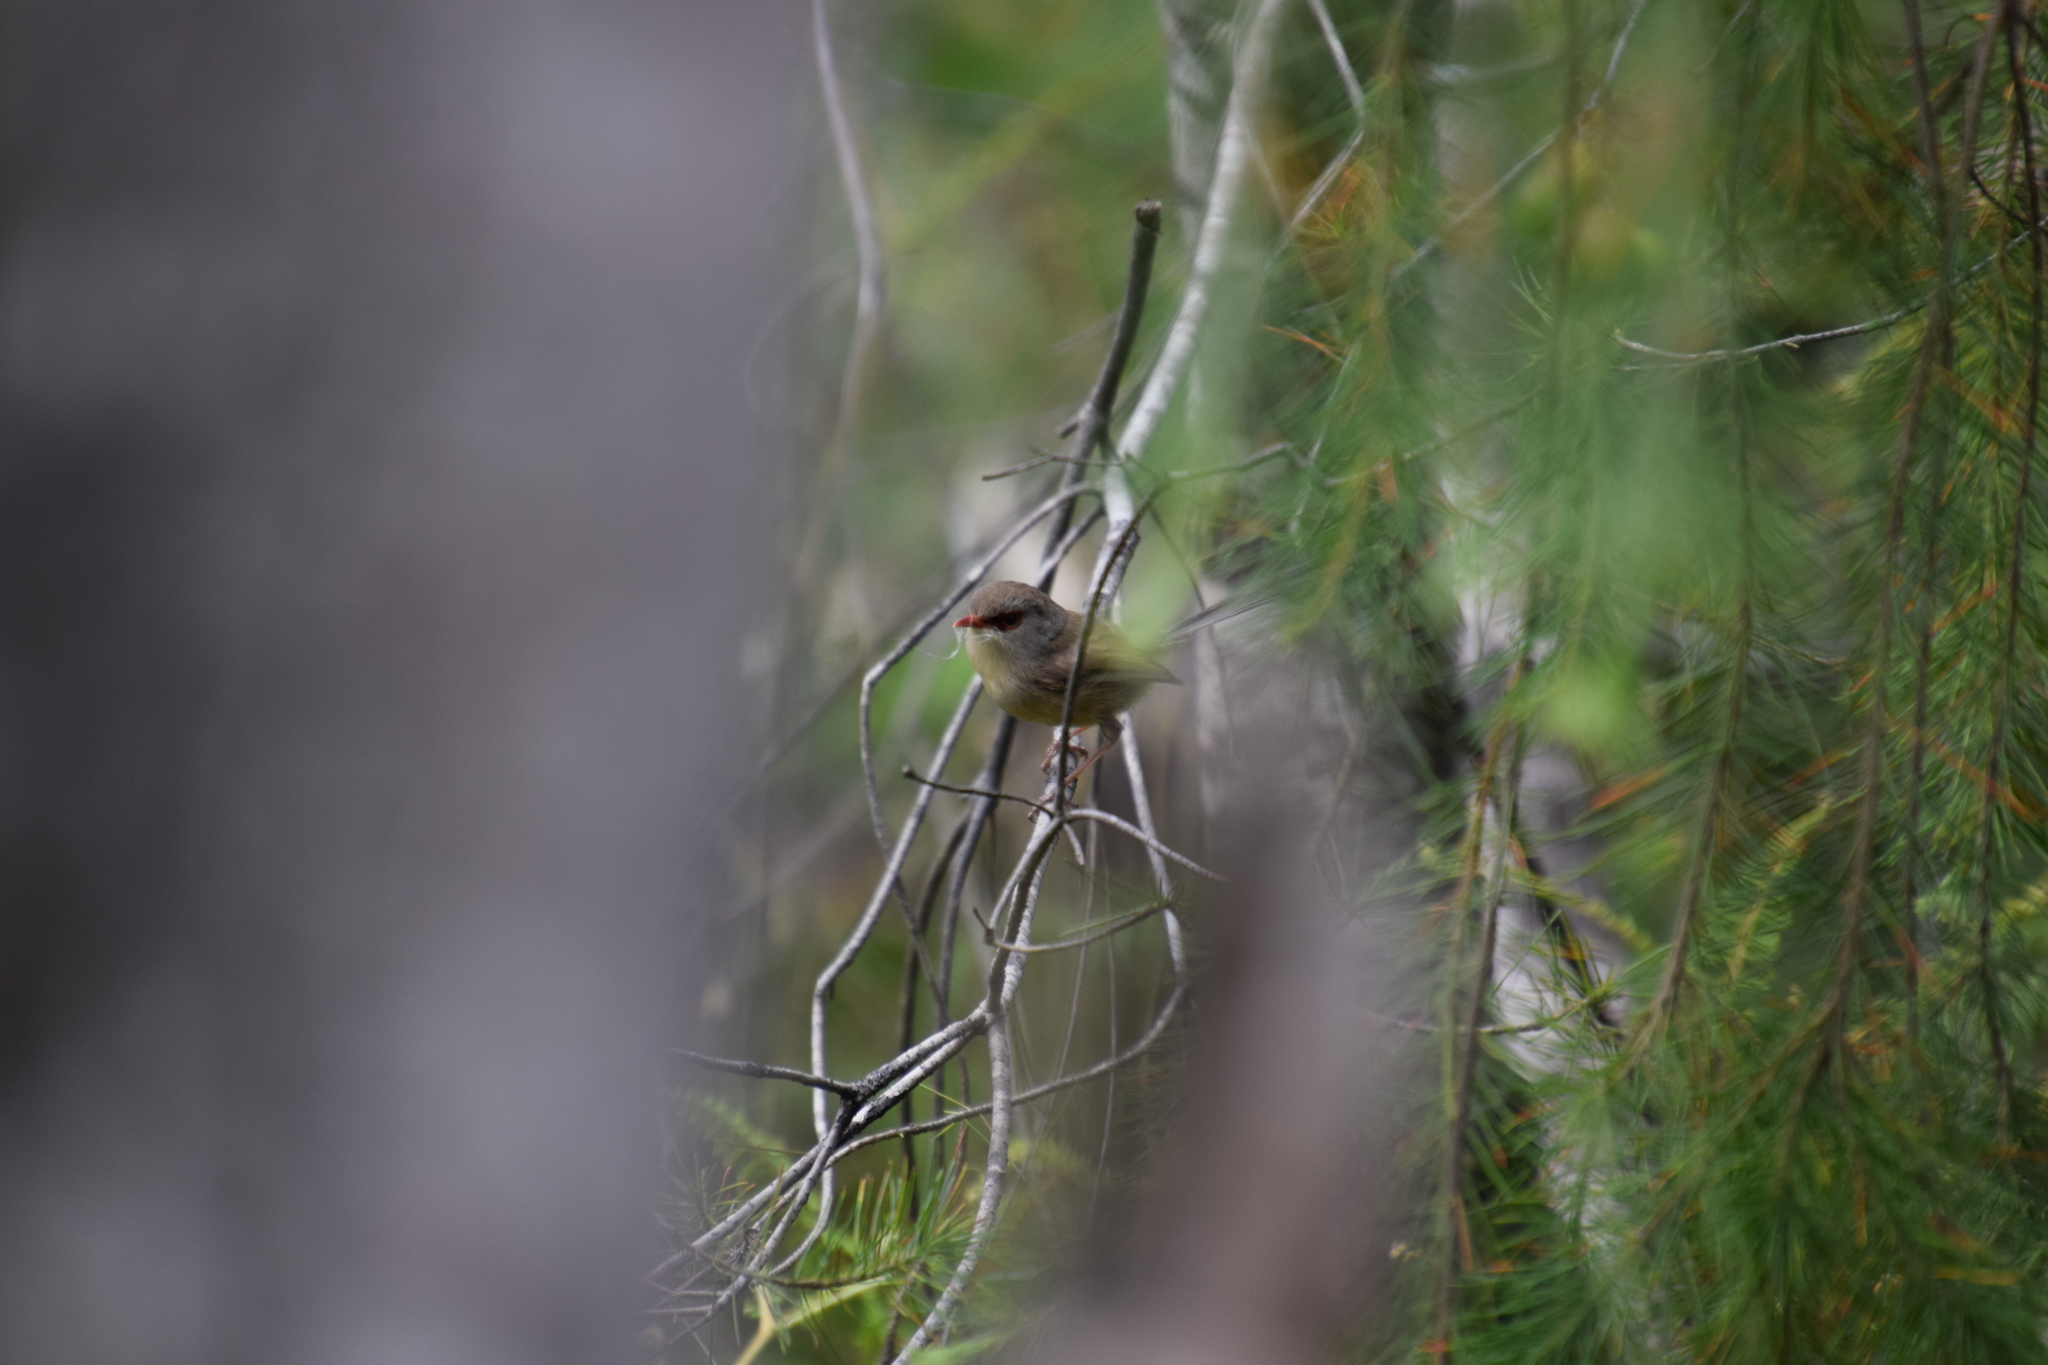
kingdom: Animalia
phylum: Chordata
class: Aves
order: Passeriformes
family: Maluridae
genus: Malurus
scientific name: Malurus lamberti
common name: Variegated fairywren
